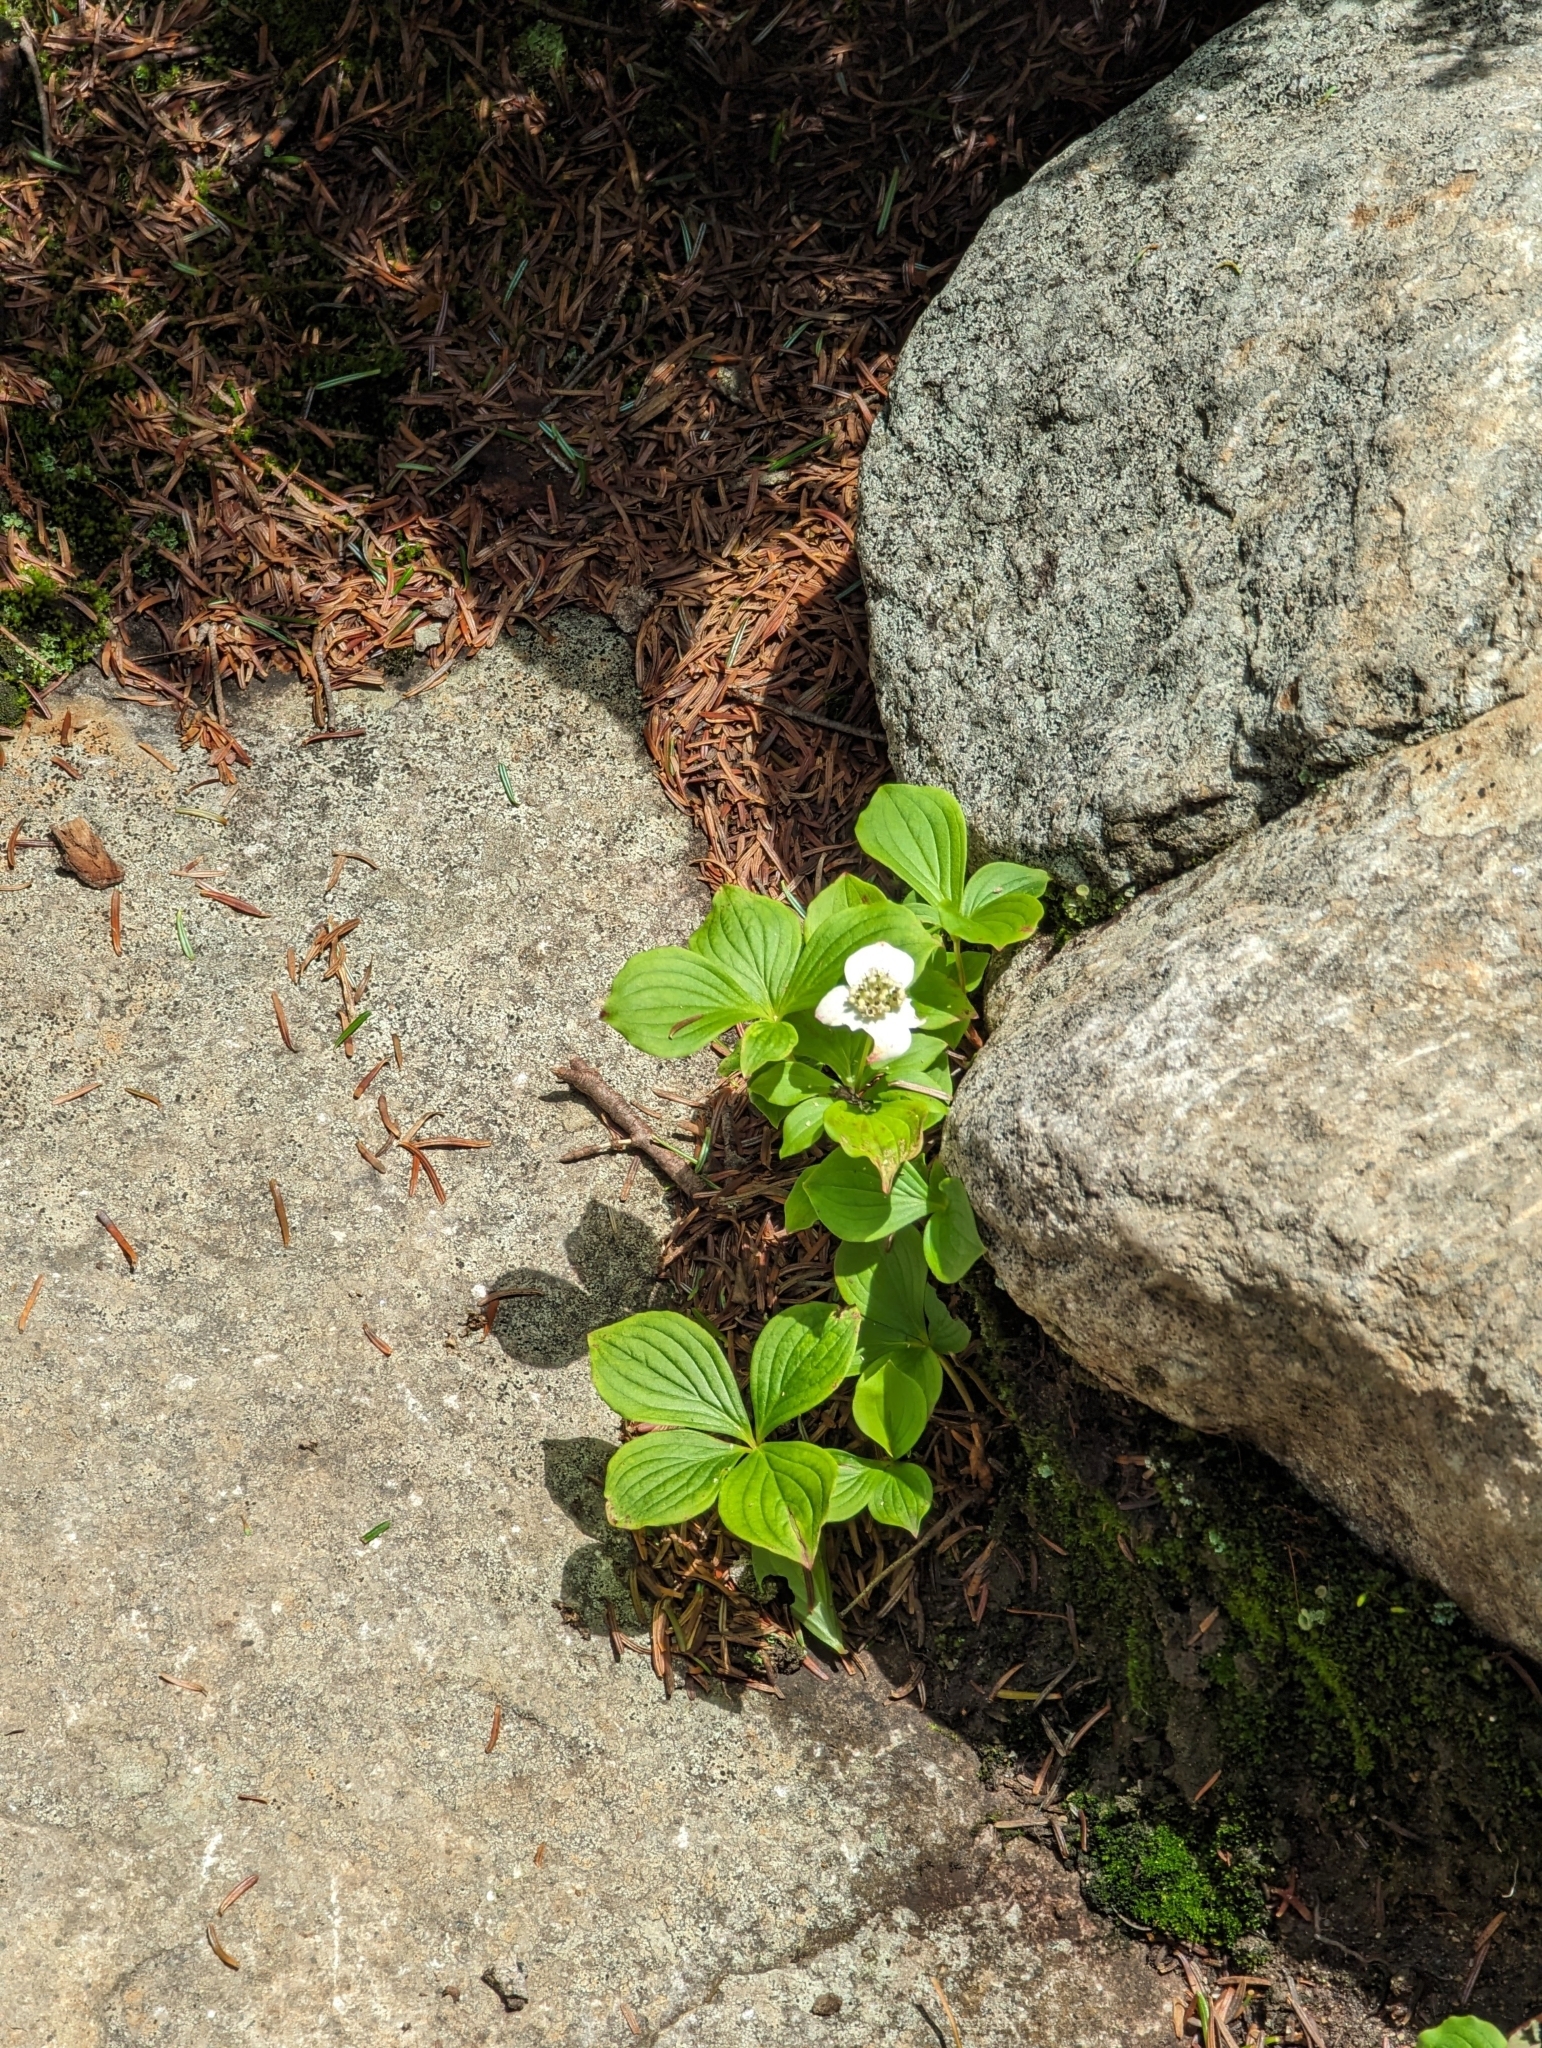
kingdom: Plantae
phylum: Tracheophyta
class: Magnoliopsida
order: Cornales
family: Cornaceae
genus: Cornus
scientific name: Cornus canadensis
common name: Creeping dogwood
